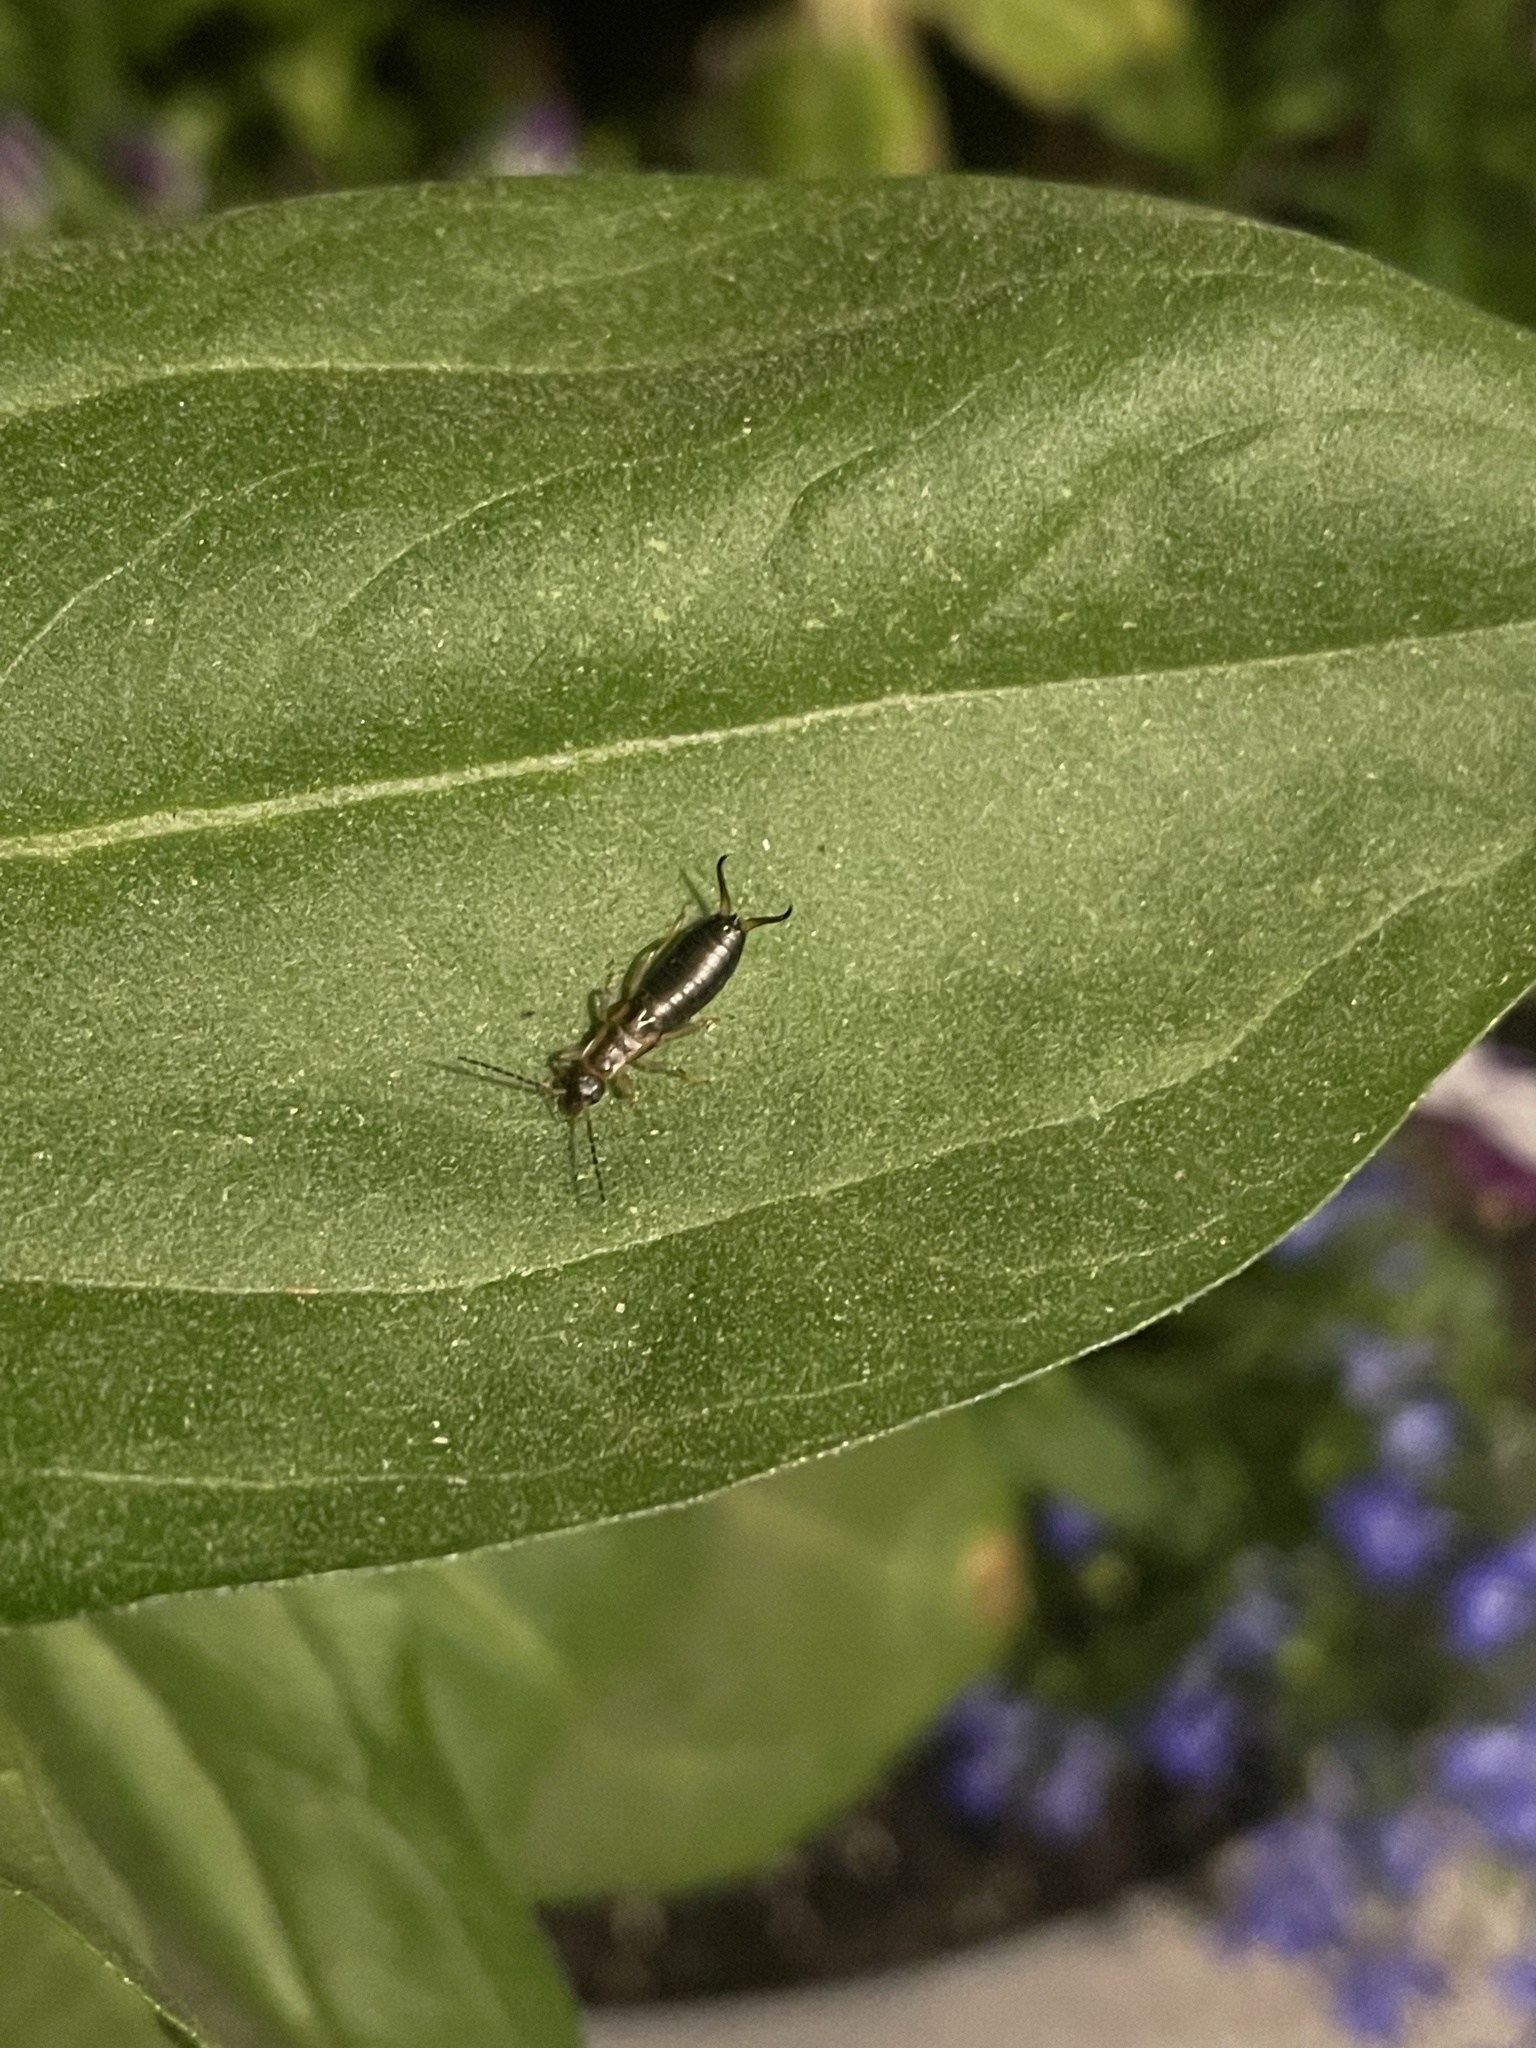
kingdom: Animalia
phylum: Arthropoda
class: Insecta
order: Dermaptera
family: Forficulidae
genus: Forficula
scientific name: Forficula
